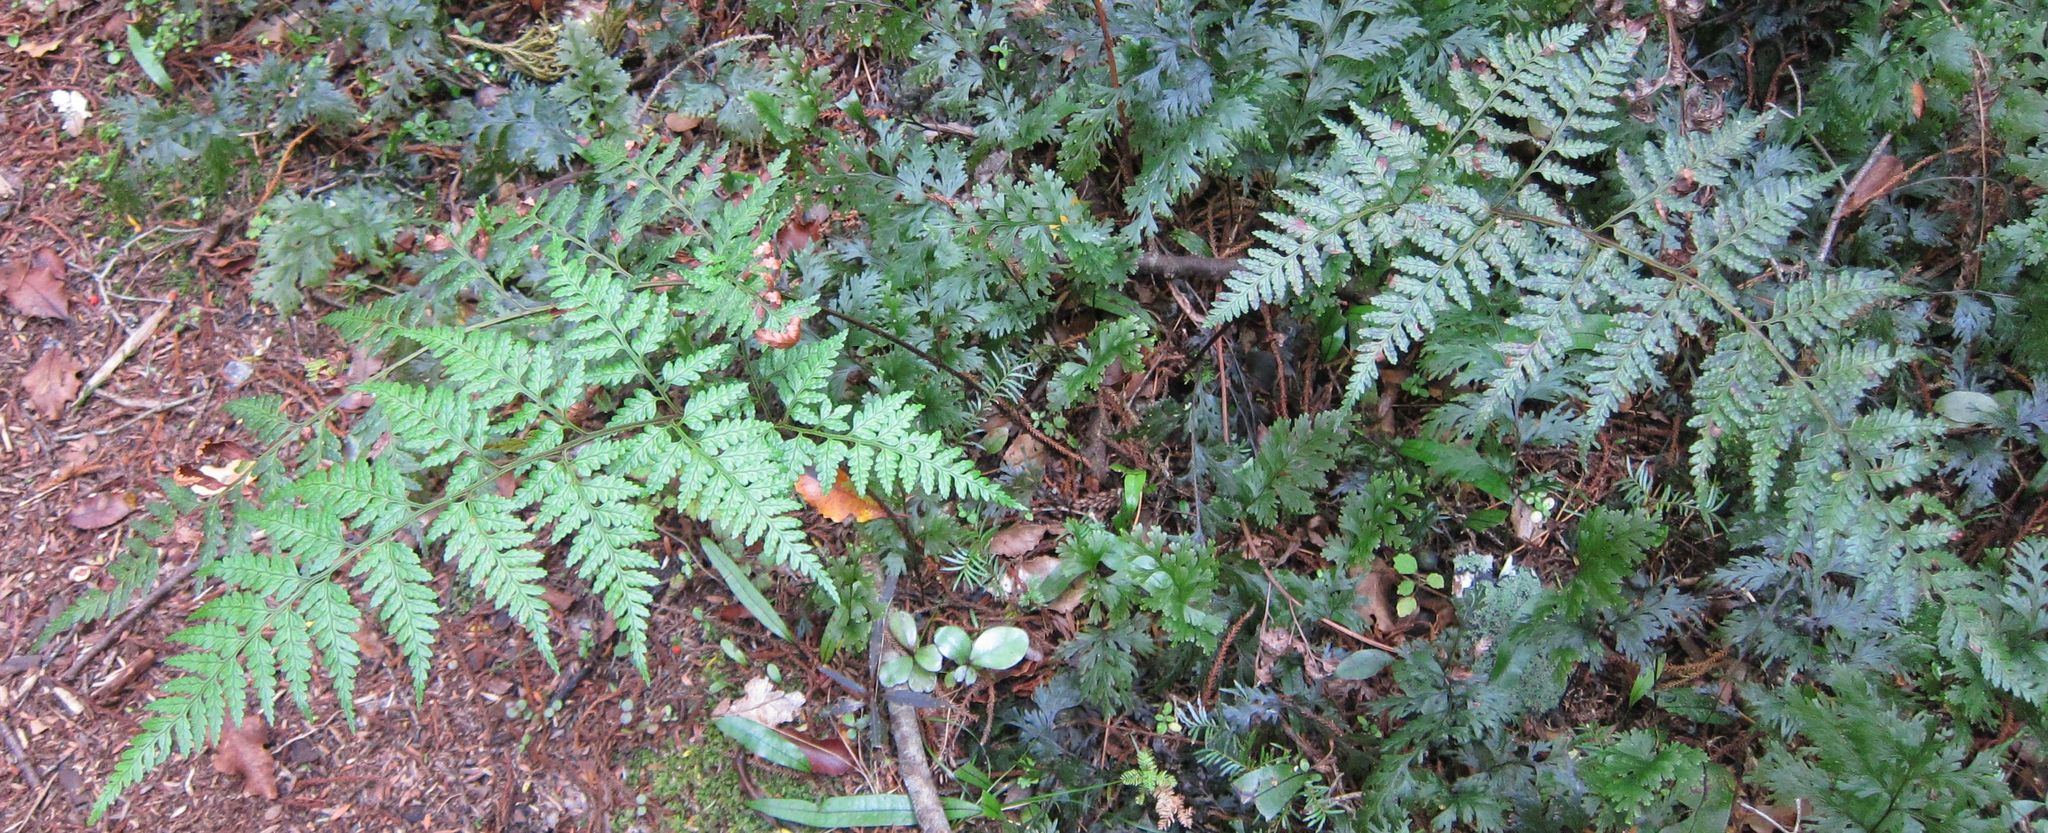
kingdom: Plantae
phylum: Tracheophyta
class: Polypodiopsida
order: Polypodiales
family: Dryopteridaceae
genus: Rumohra
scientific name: Rumohra adiantiformis
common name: Leather fern
